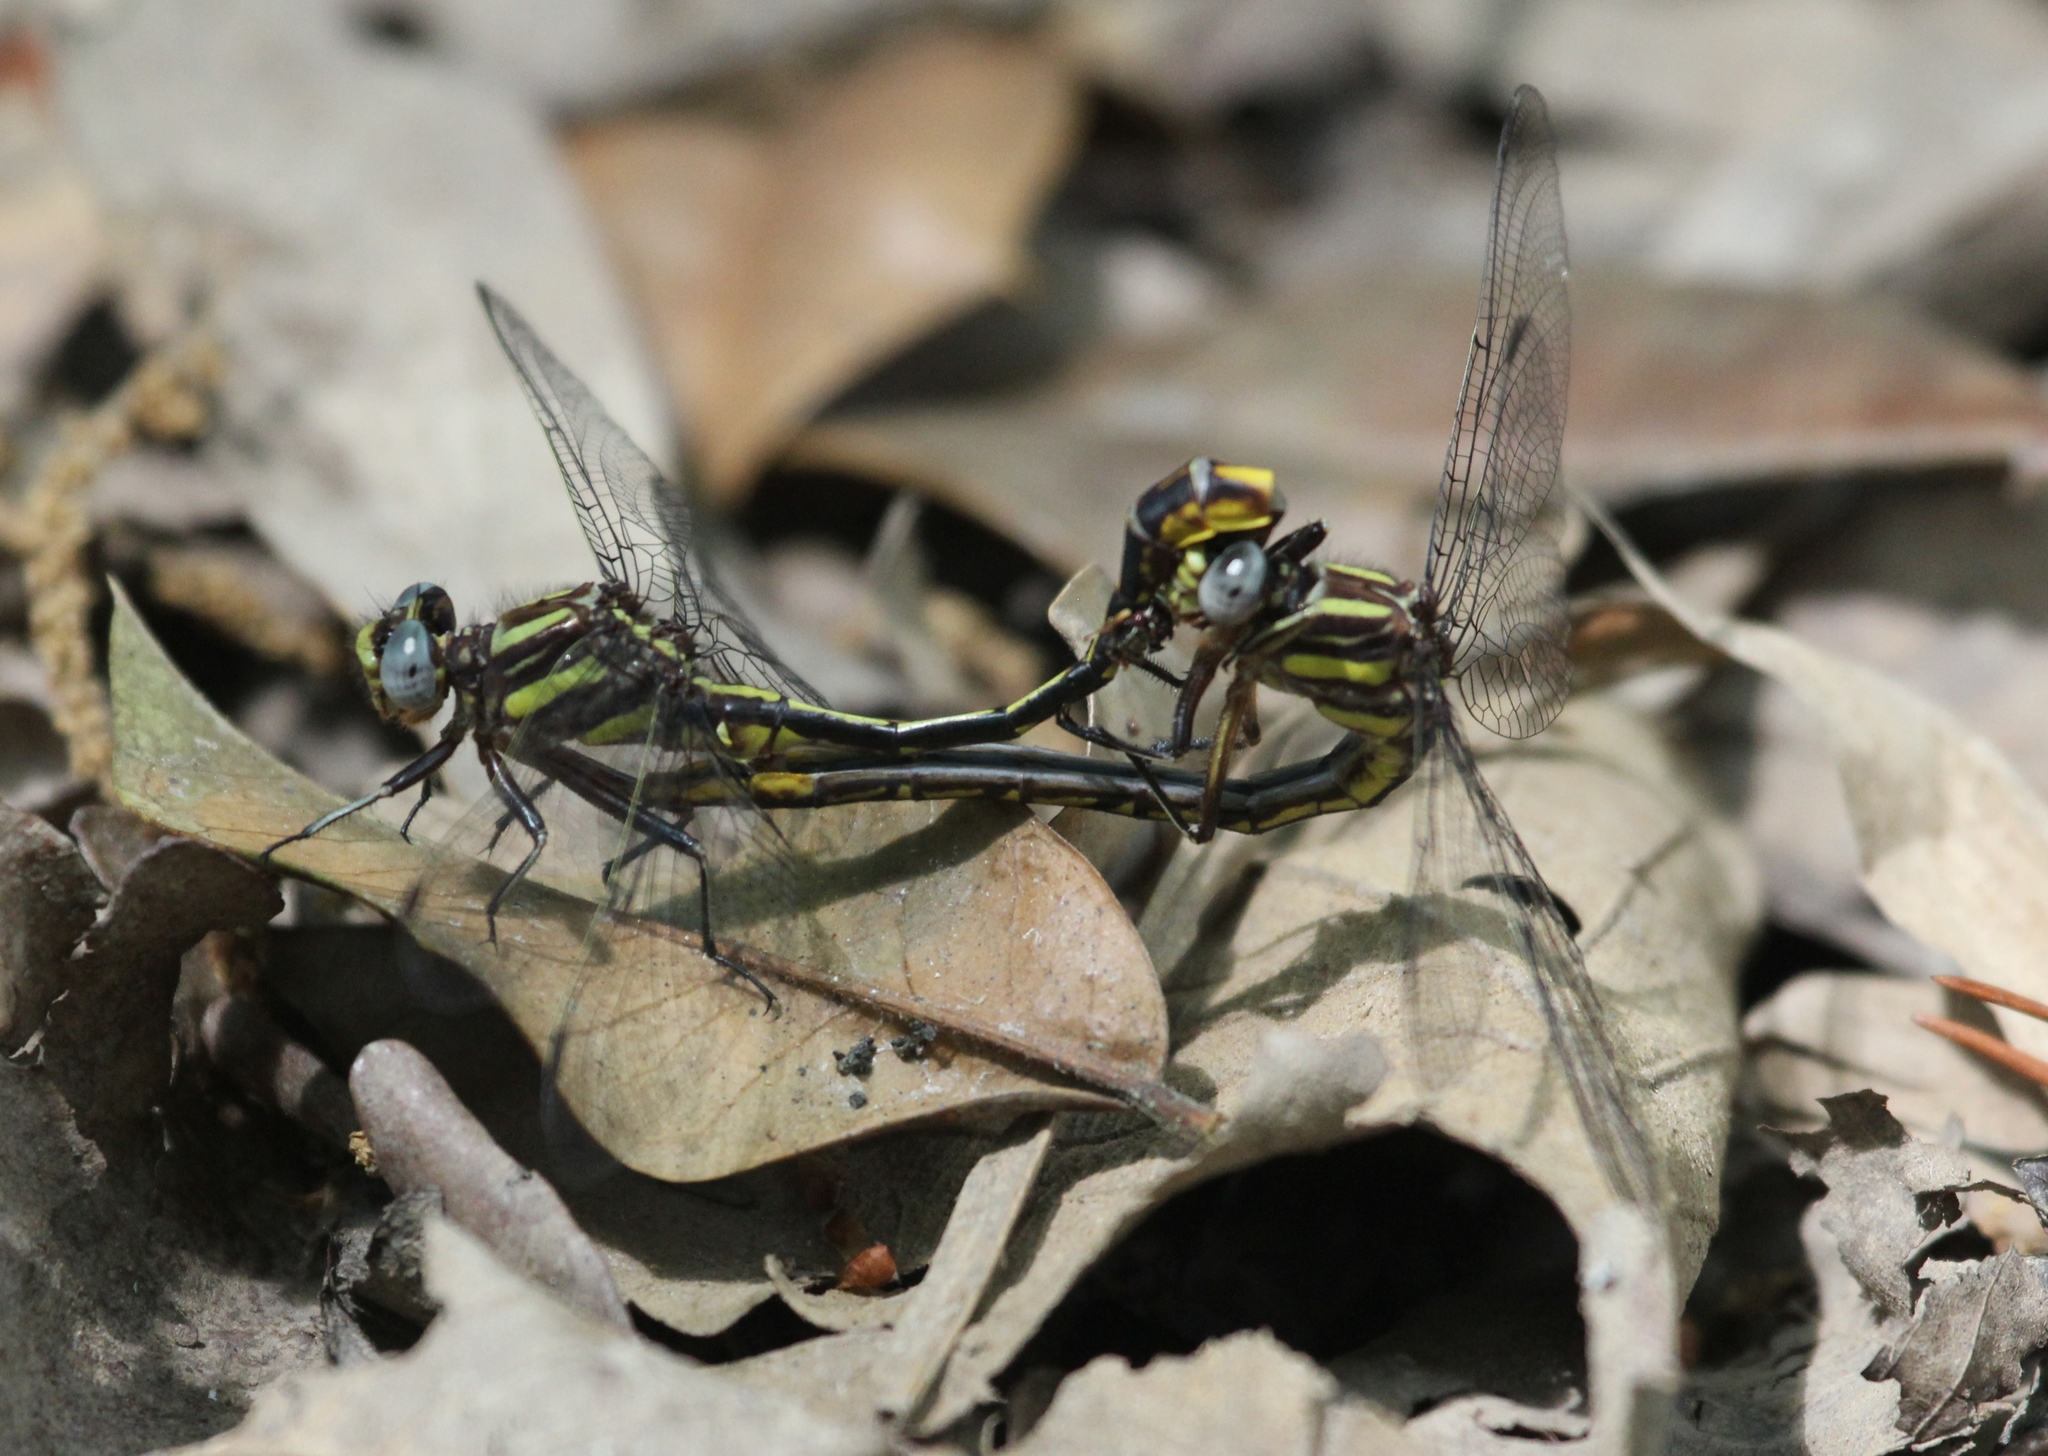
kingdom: Animalia
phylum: Arthropoda
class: Insecta
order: Odonata
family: Gomphidae
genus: Phanogomphus
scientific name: Phanogomphus exilis
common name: Lancet clubtail
